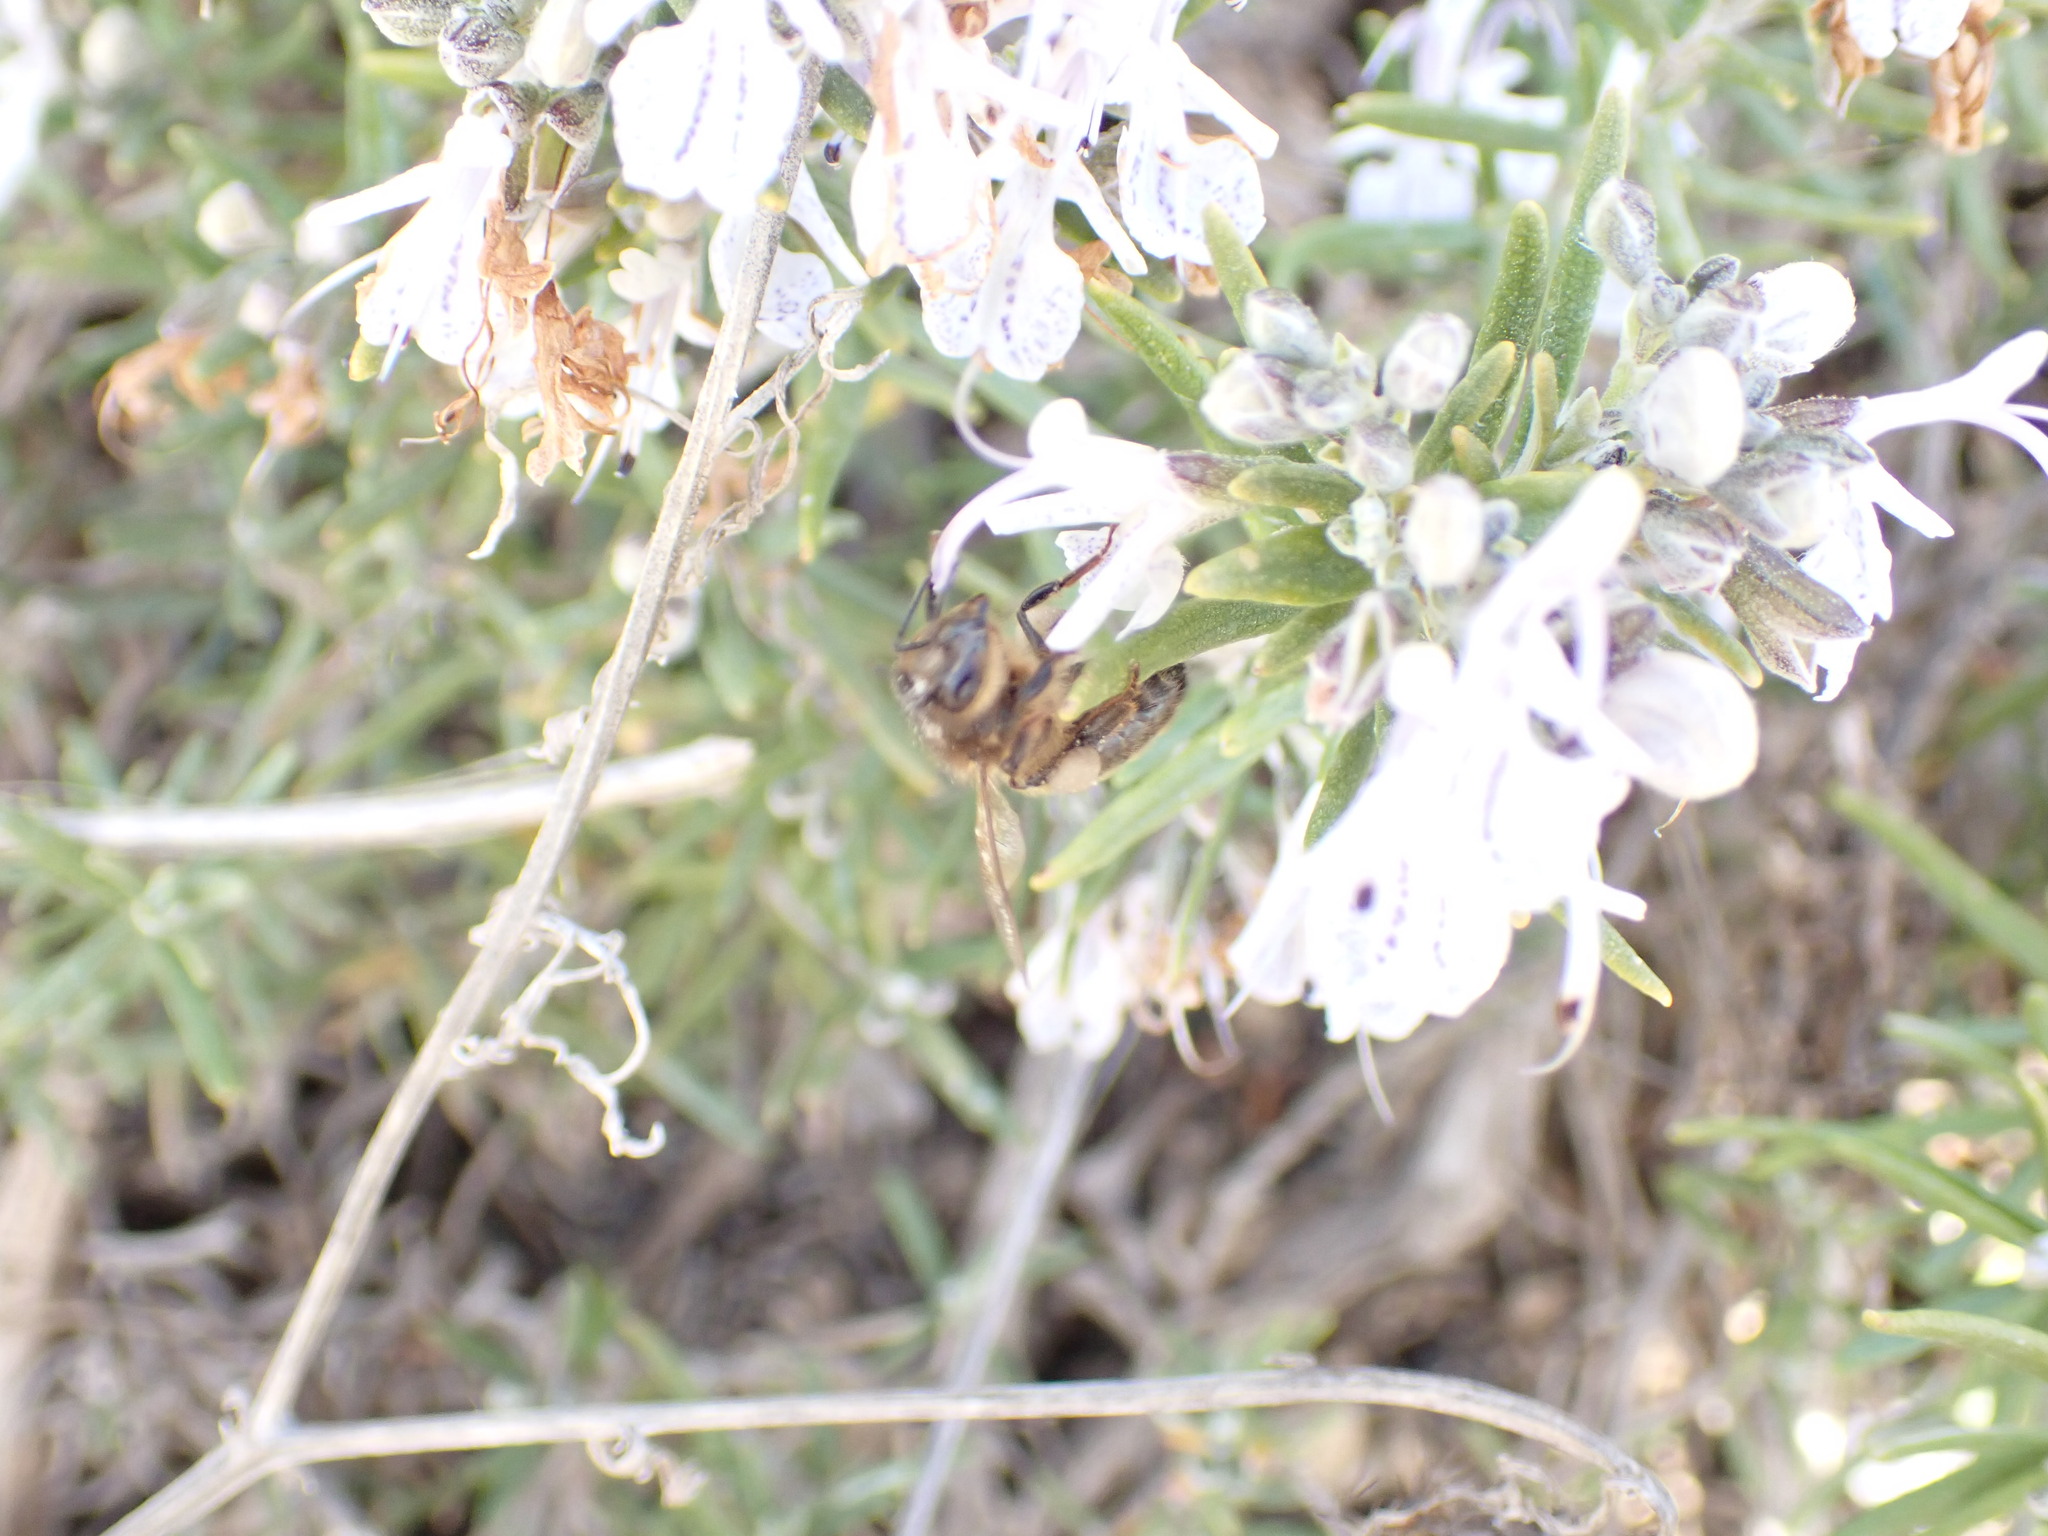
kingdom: Animalia
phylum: Arthropoda
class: Insecta
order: Hymenoptera
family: Apidae
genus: Apis
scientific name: Apis mellifera
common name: Honey bee
